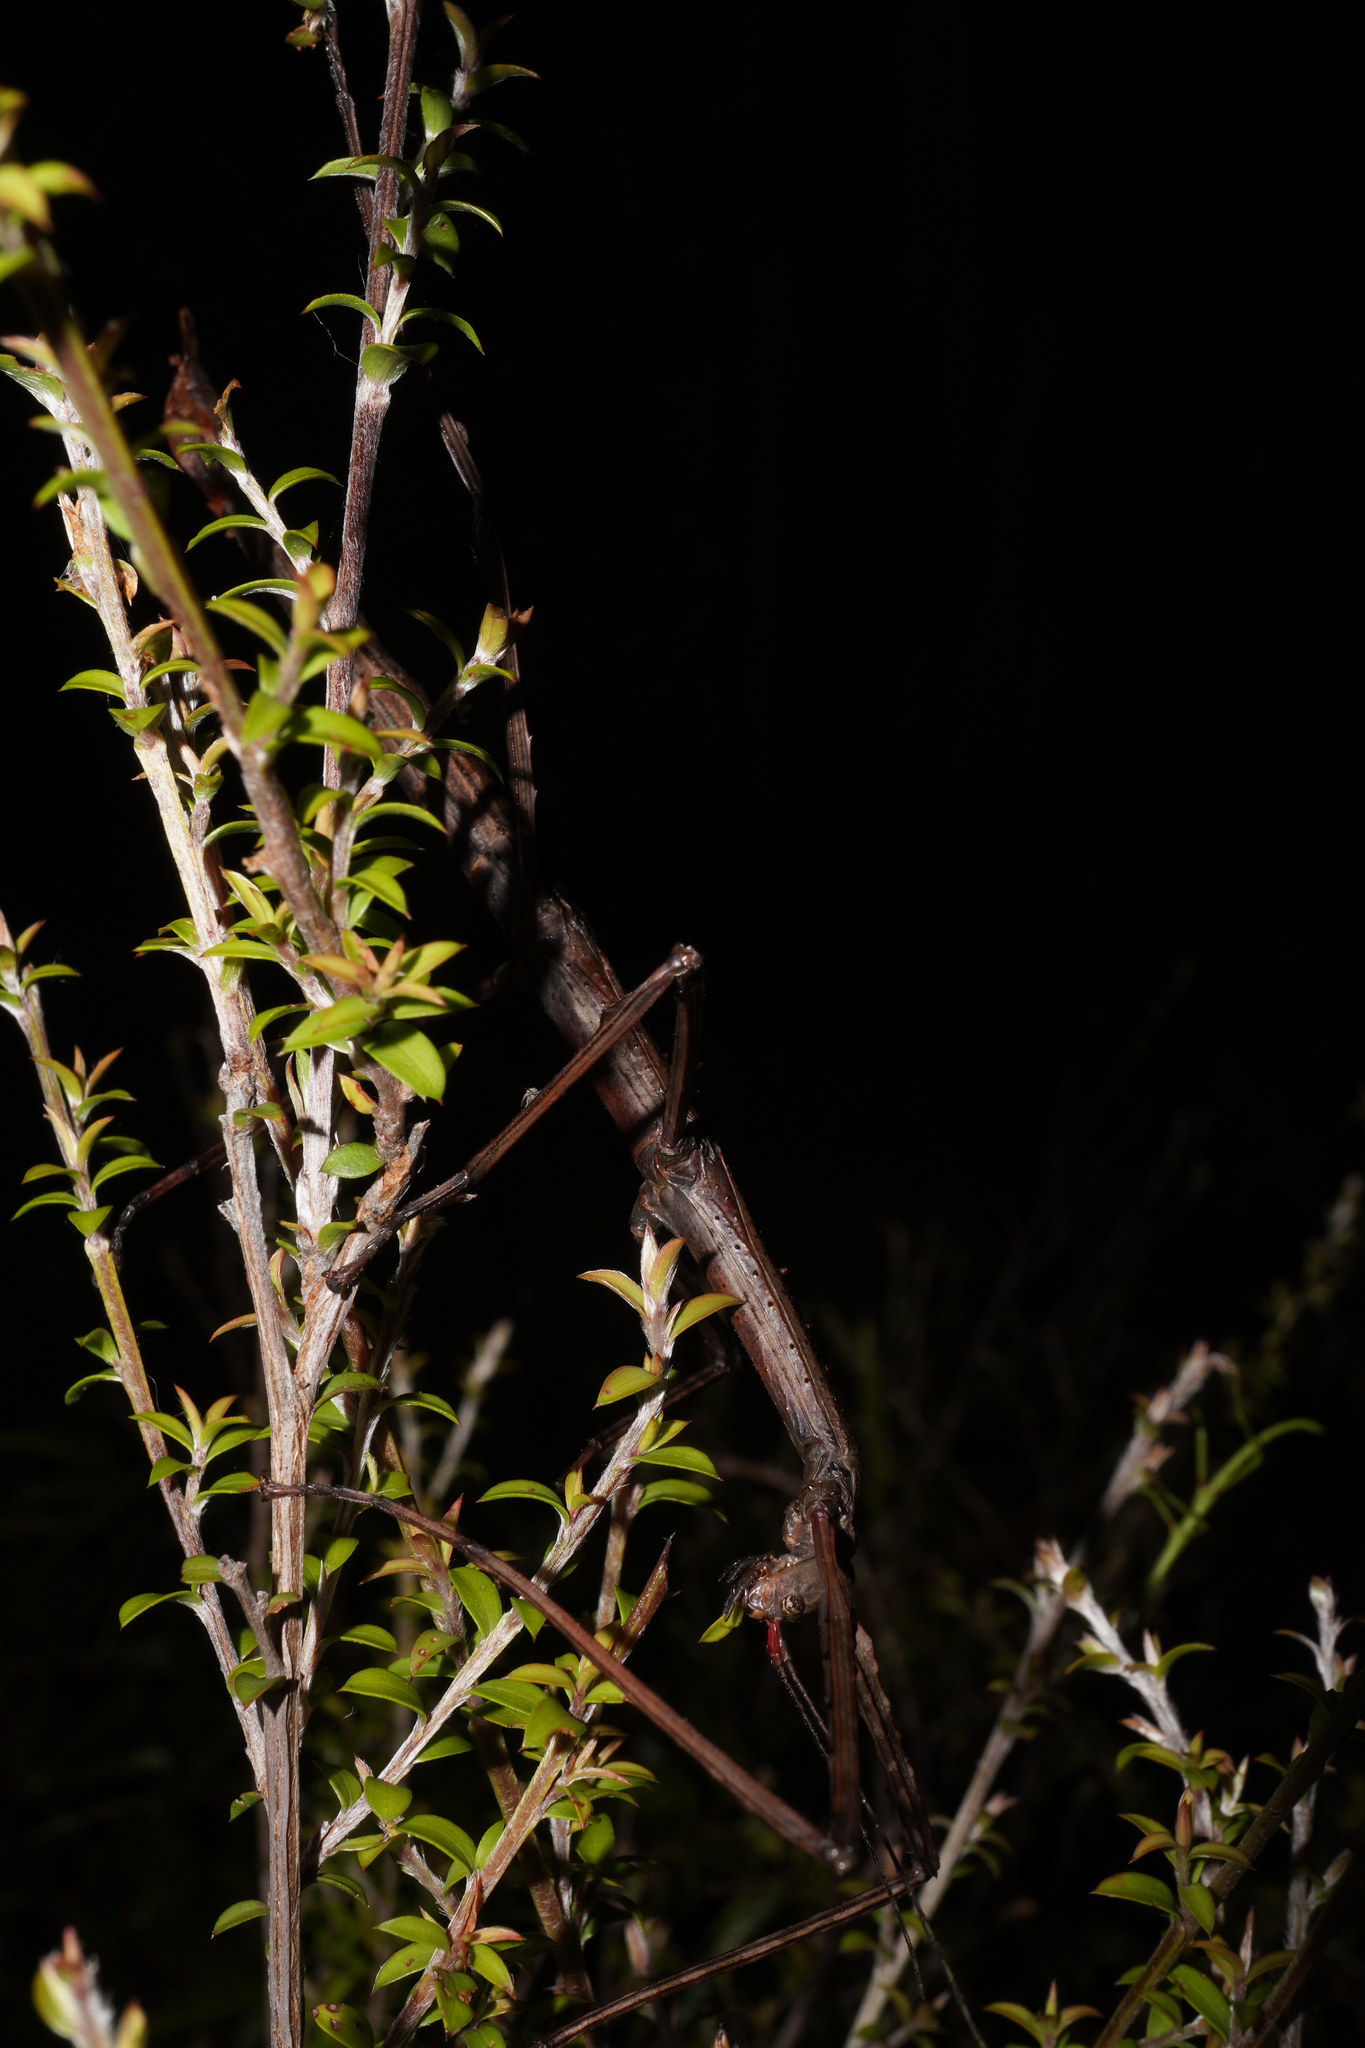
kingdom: Animalia
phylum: Arthropoda
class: Insecta
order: Phasmida
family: Phasmatidae
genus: Acanthoxyla
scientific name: Acanthoxyla inermis
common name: Unarmed stick insect
